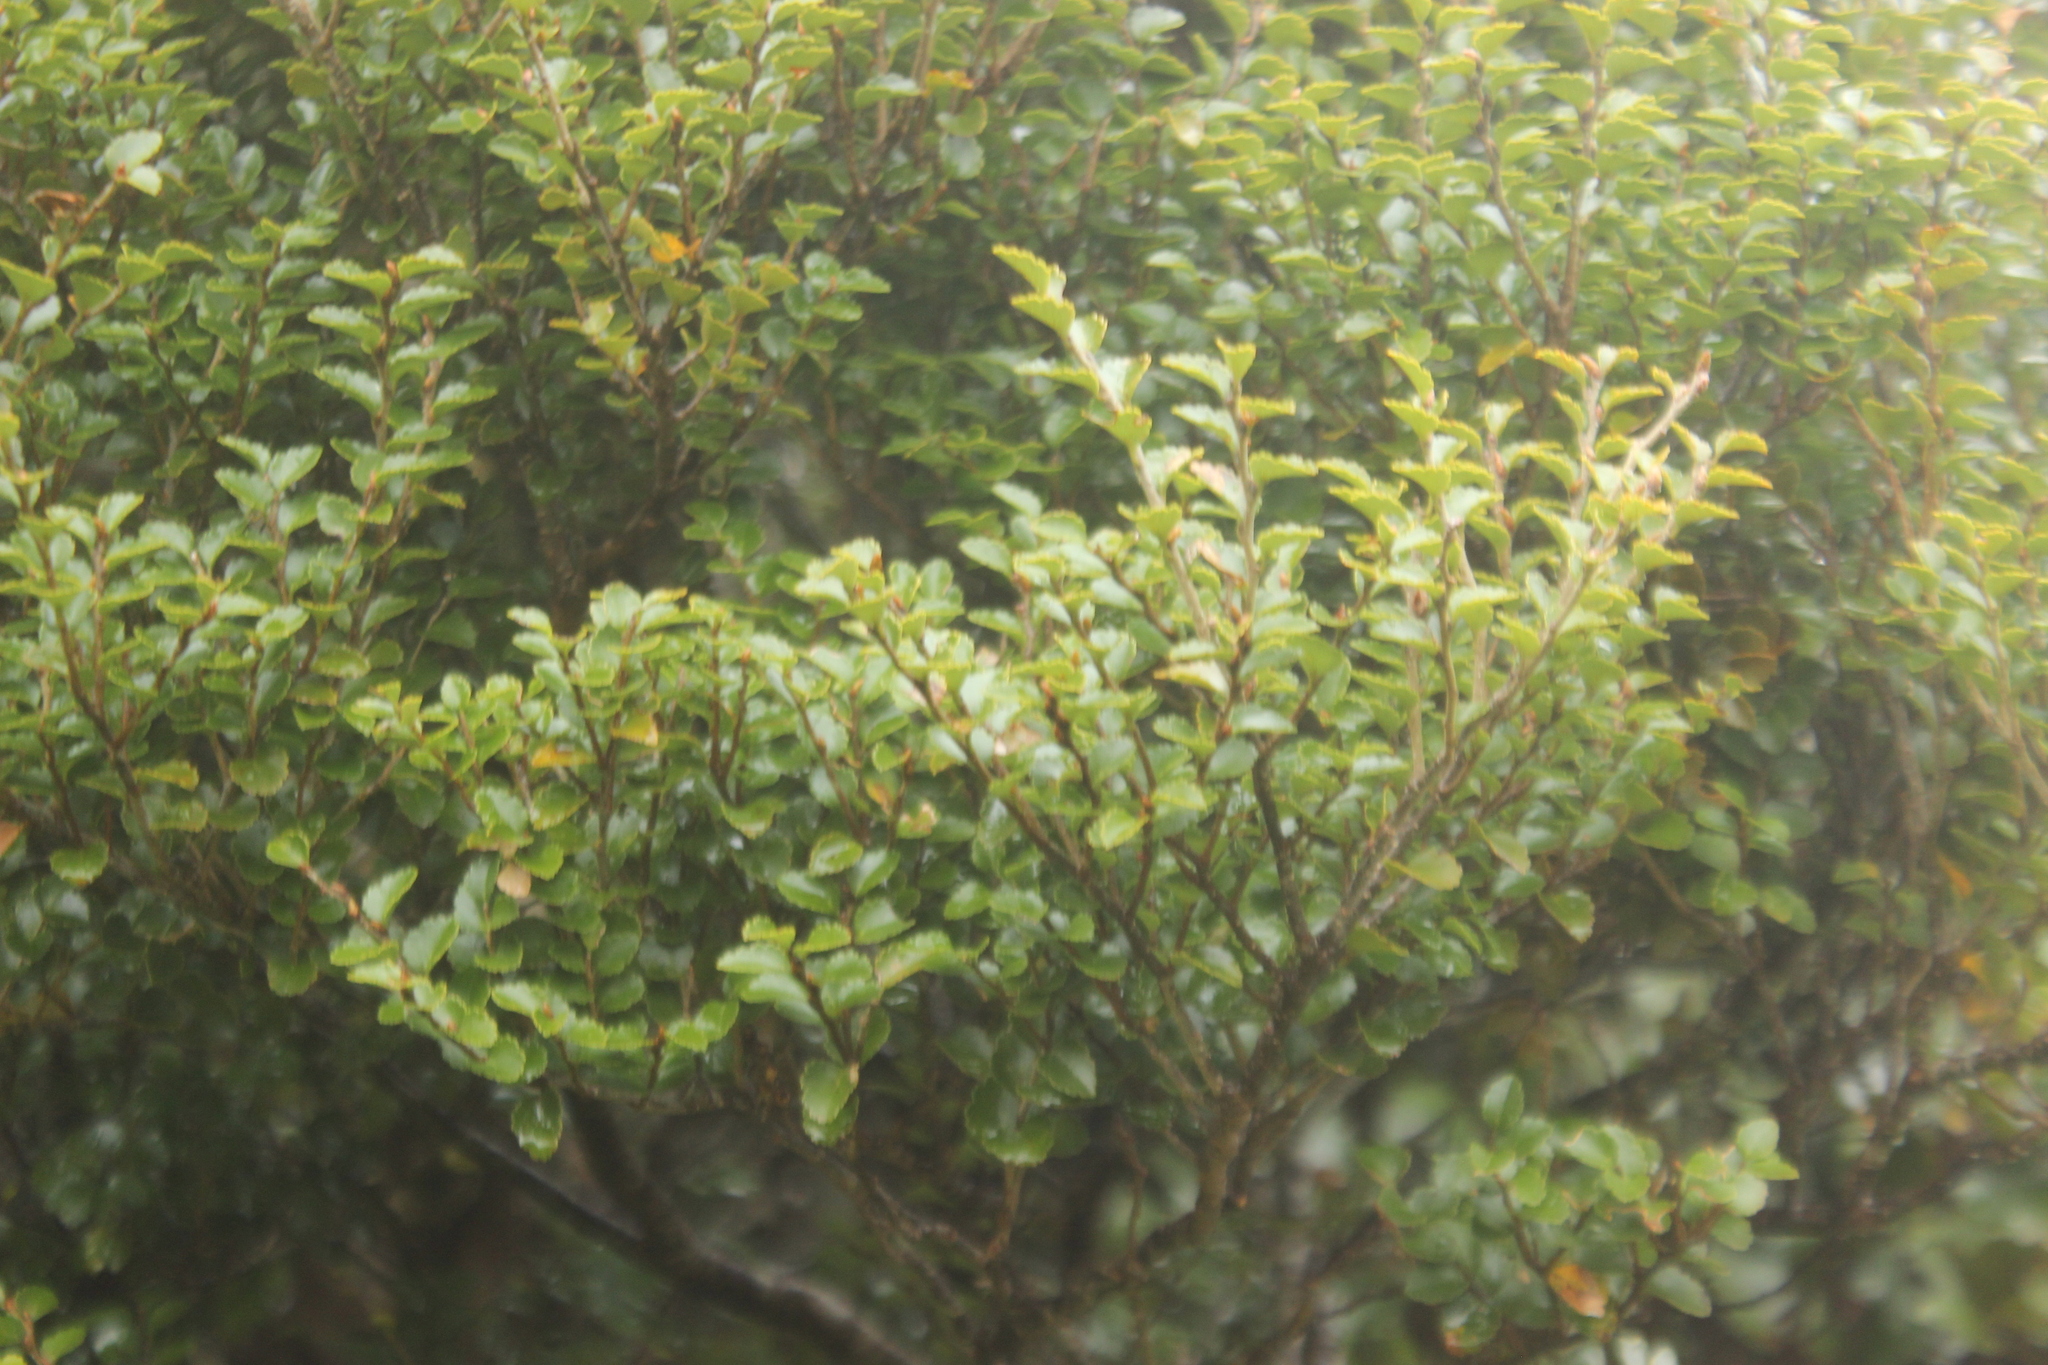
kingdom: Plantae
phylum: Tracheophyta
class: Magnoliopsida
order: Fagales
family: Nothofagaceae
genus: Nothofagus
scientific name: Nothofagus menziesii
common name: Silver beech
